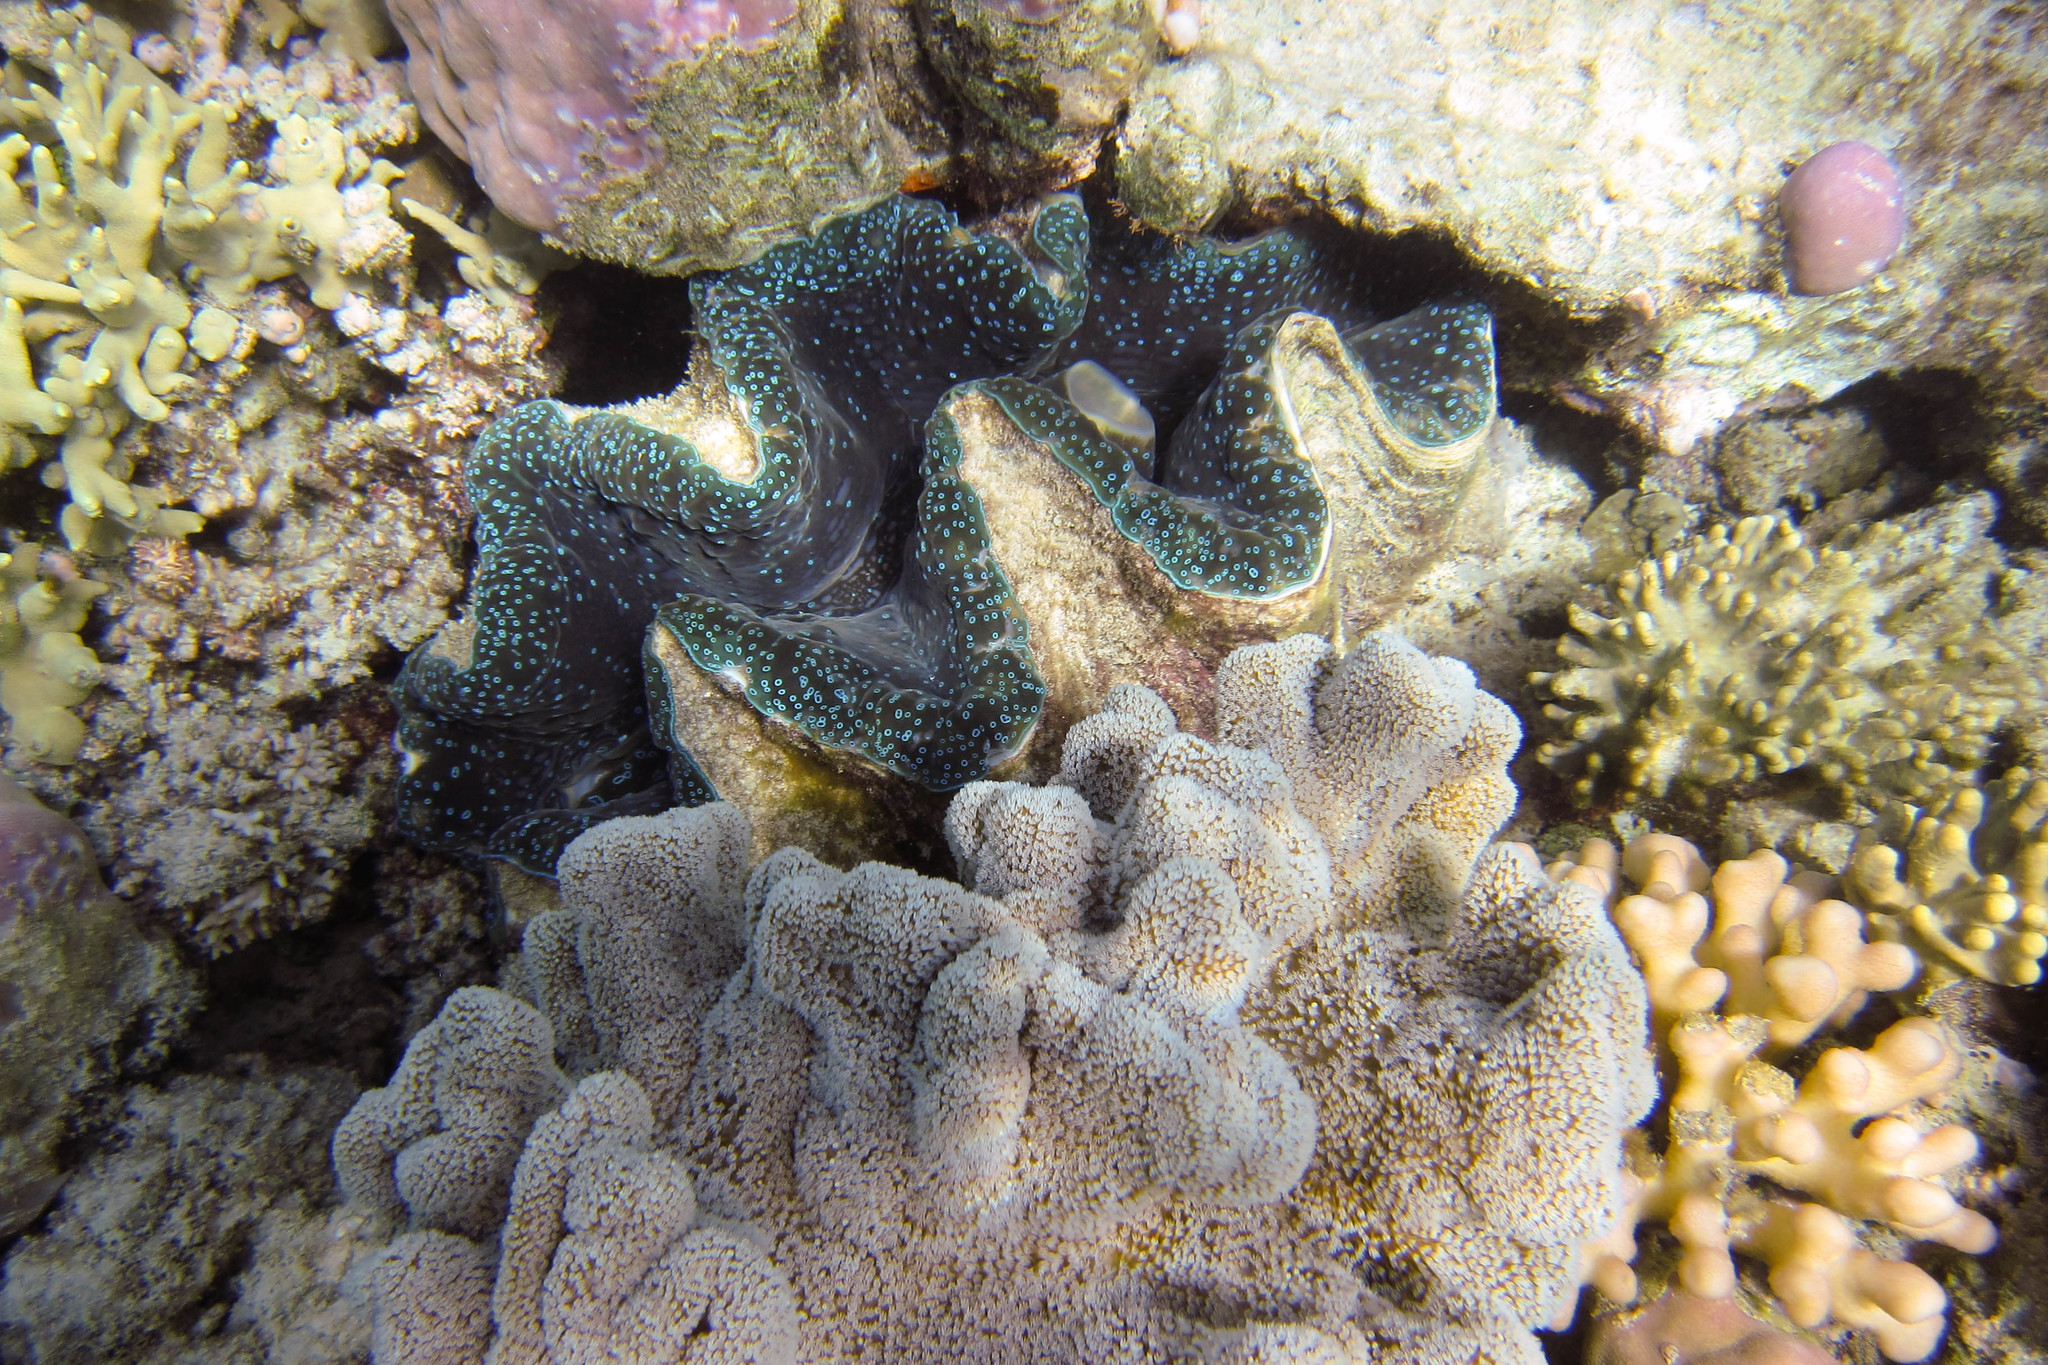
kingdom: Animalia
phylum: Cnidaria
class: Anthozoa
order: Scleractinia
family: Pocilloporidae
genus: Stylophora
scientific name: Stylophora pistillata
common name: Hood coral
